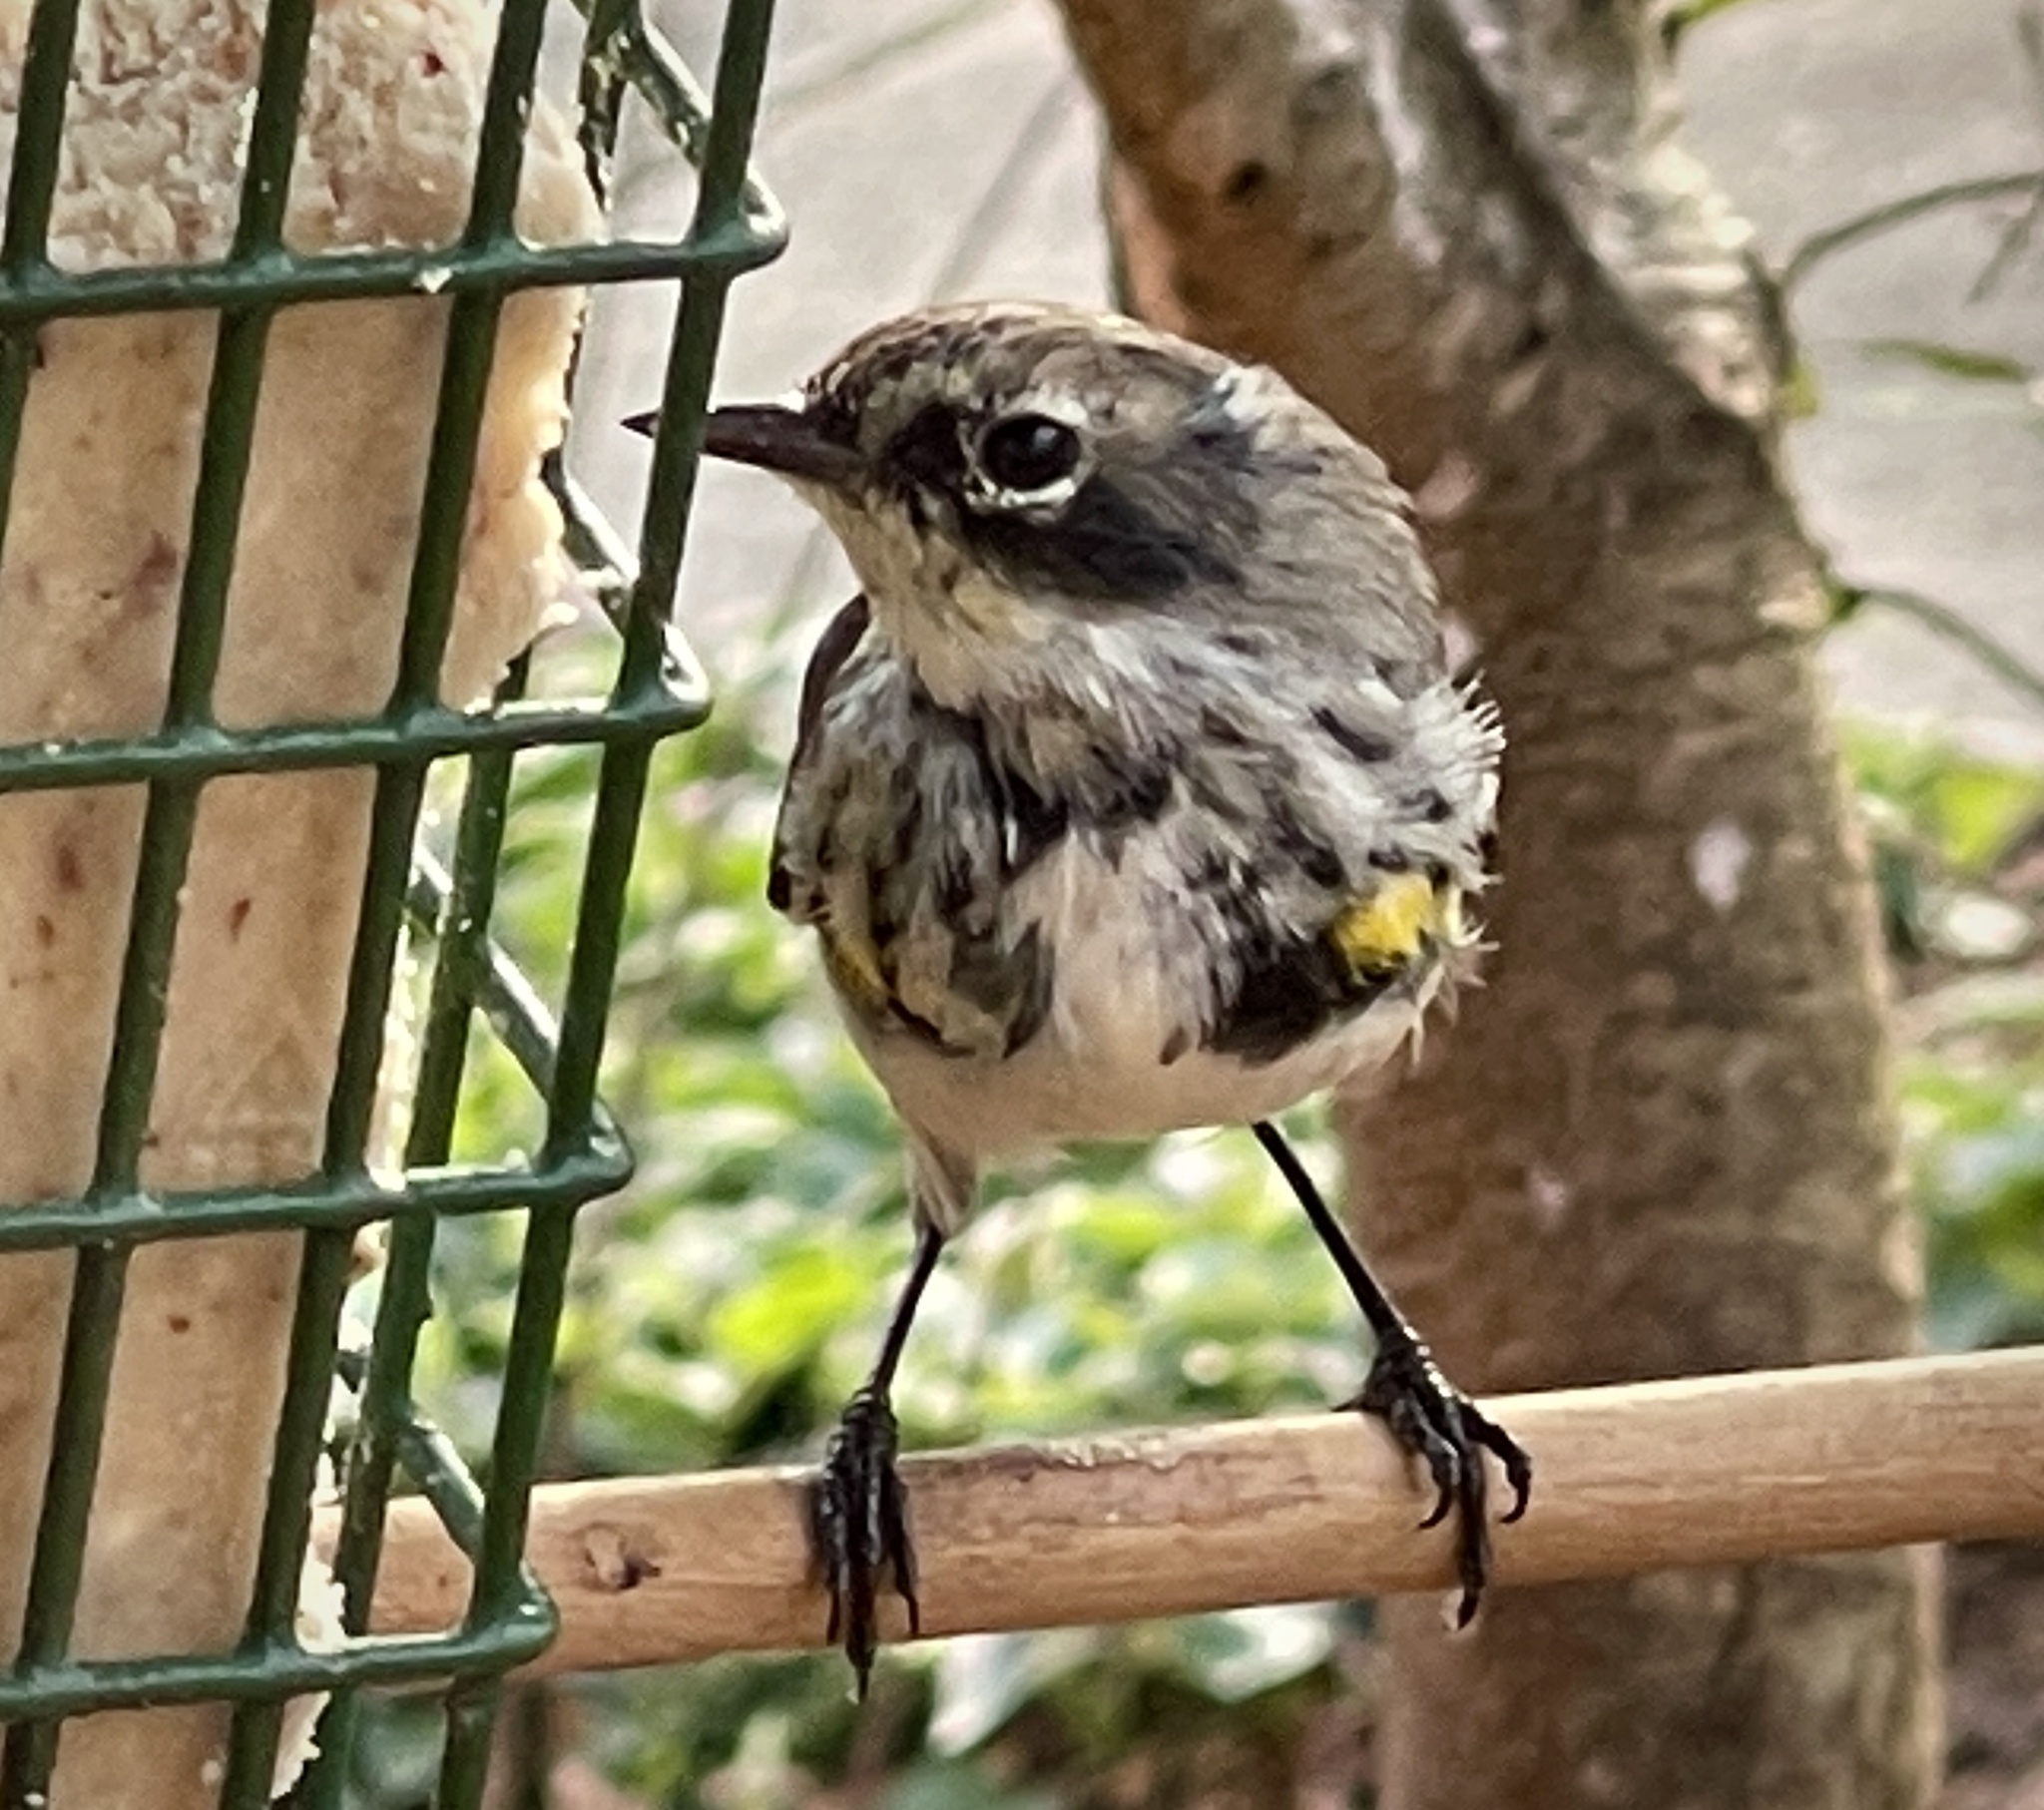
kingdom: Animalia
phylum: Chordata
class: Aves
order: Passeriformes
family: Parulidae
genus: Setophaga
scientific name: Setophaga coronata
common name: Myrtle warbler
